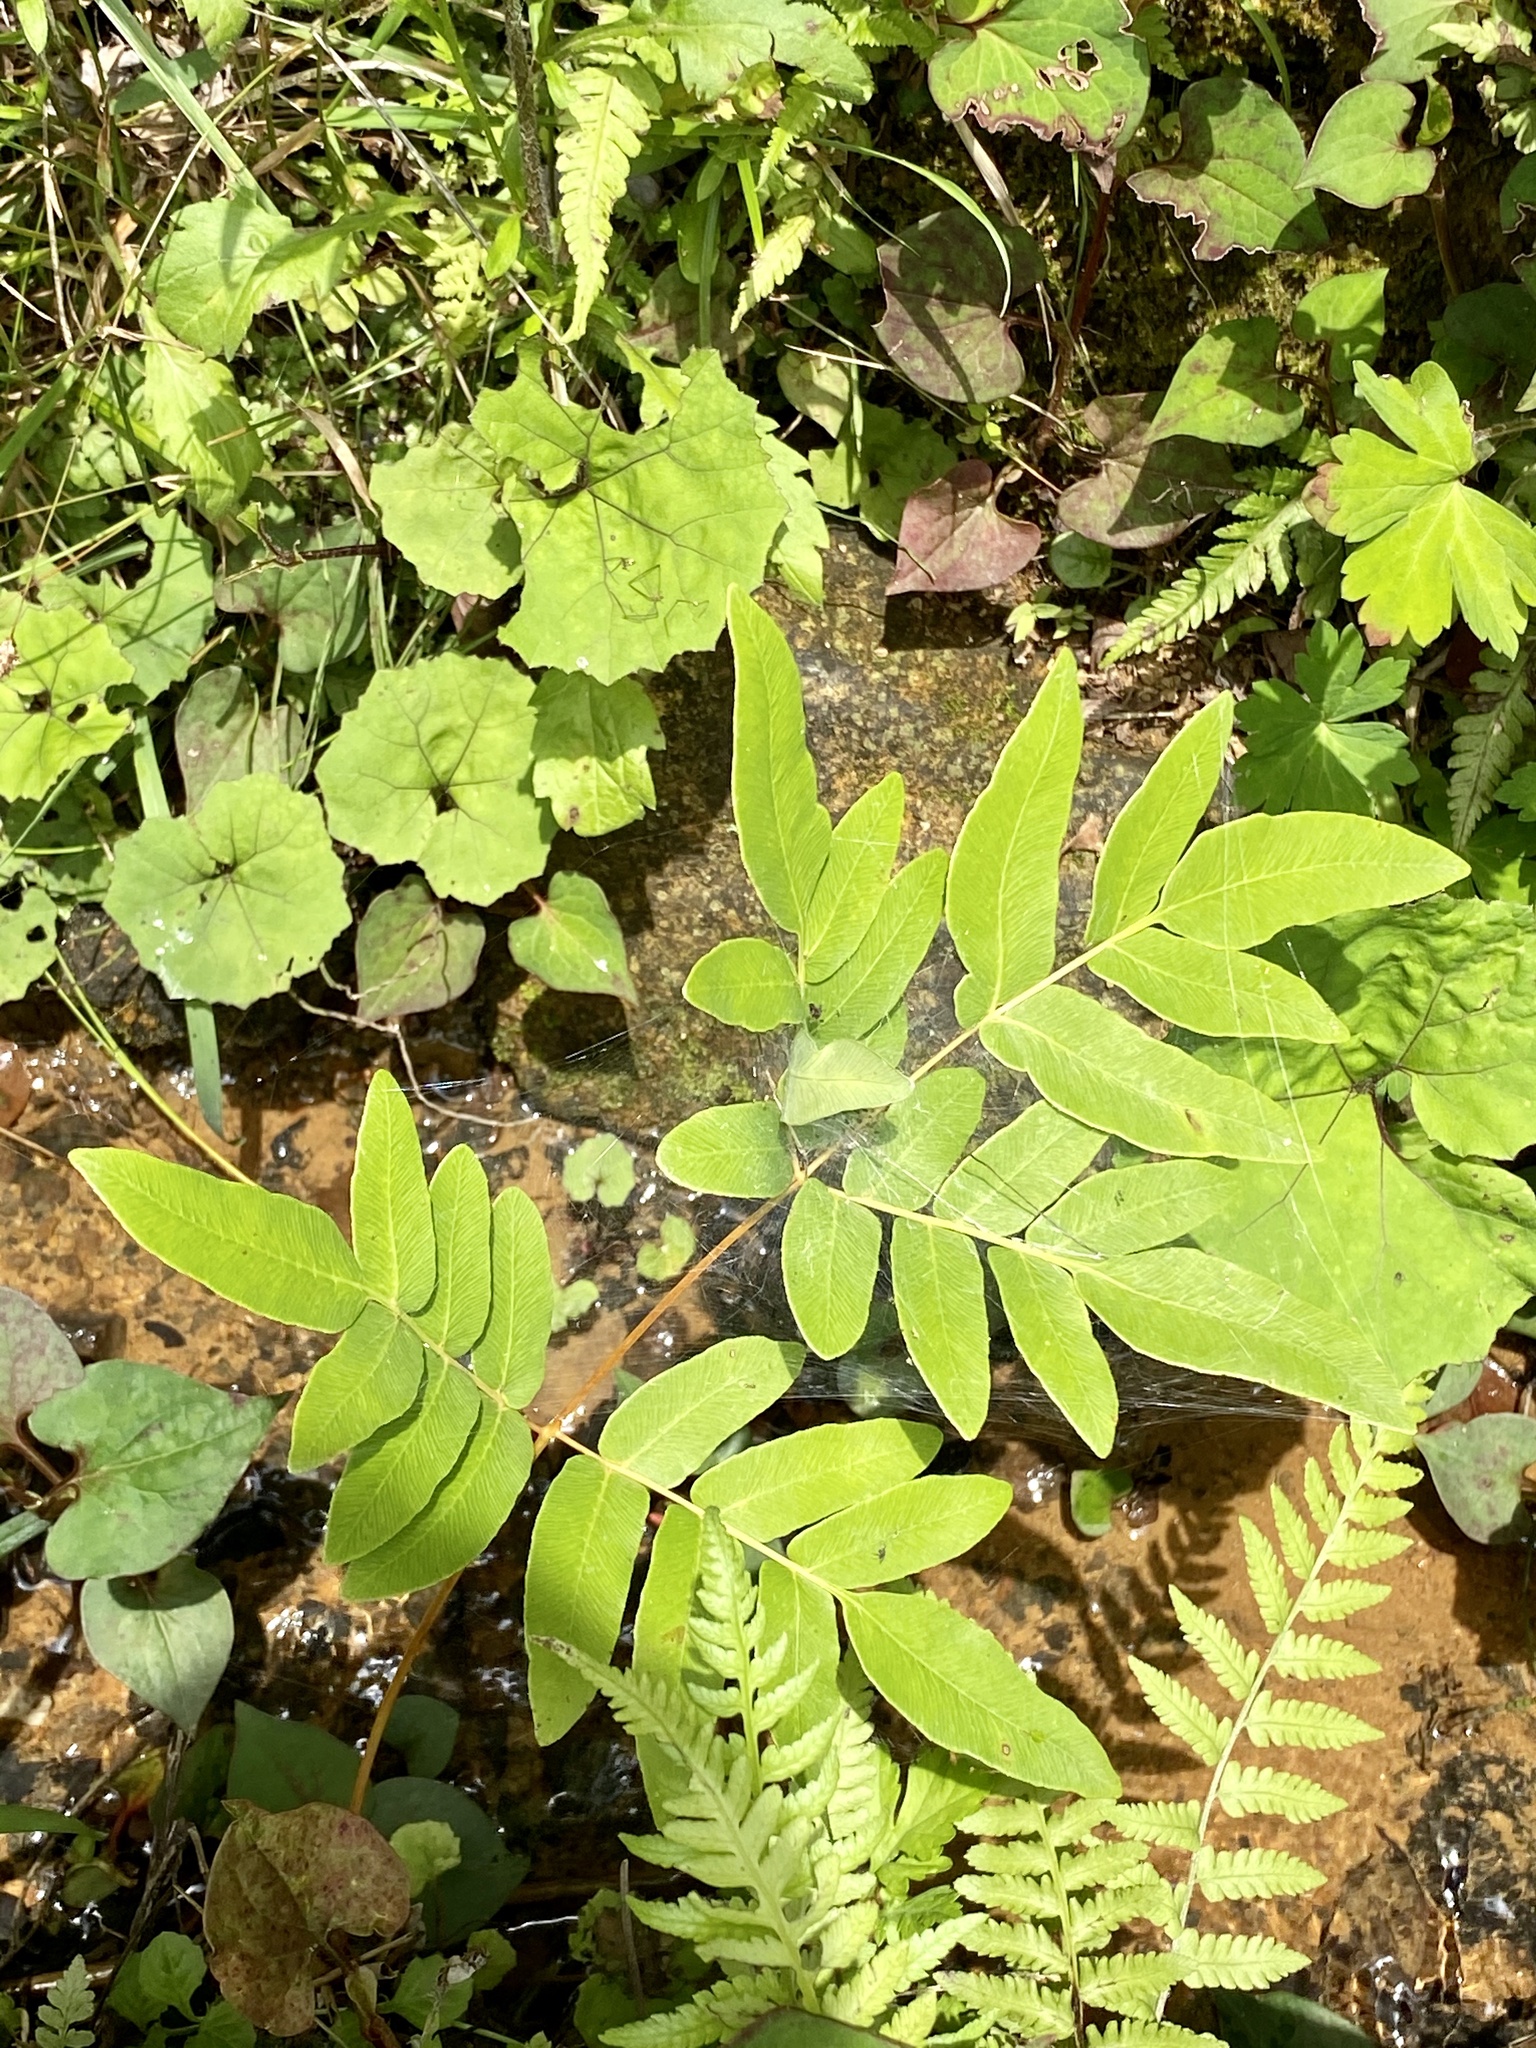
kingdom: Plantae
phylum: Tracheophyta
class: Polypodiopsida
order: Osmundales
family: Osmundaceae
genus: Osmunda
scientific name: Osmunda japonica
